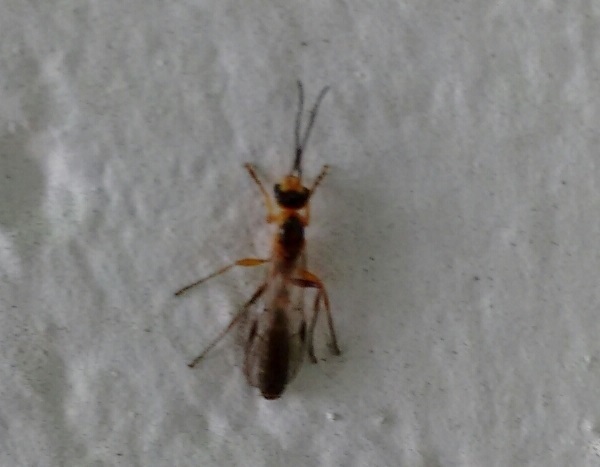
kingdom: Animalia
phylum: Arthropoda
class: Insecta
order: Hymenoptera
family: Formicidae
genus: Pseudomyrmex
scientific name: Pseudomyrmex gracilis
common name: Graceful twig ant
